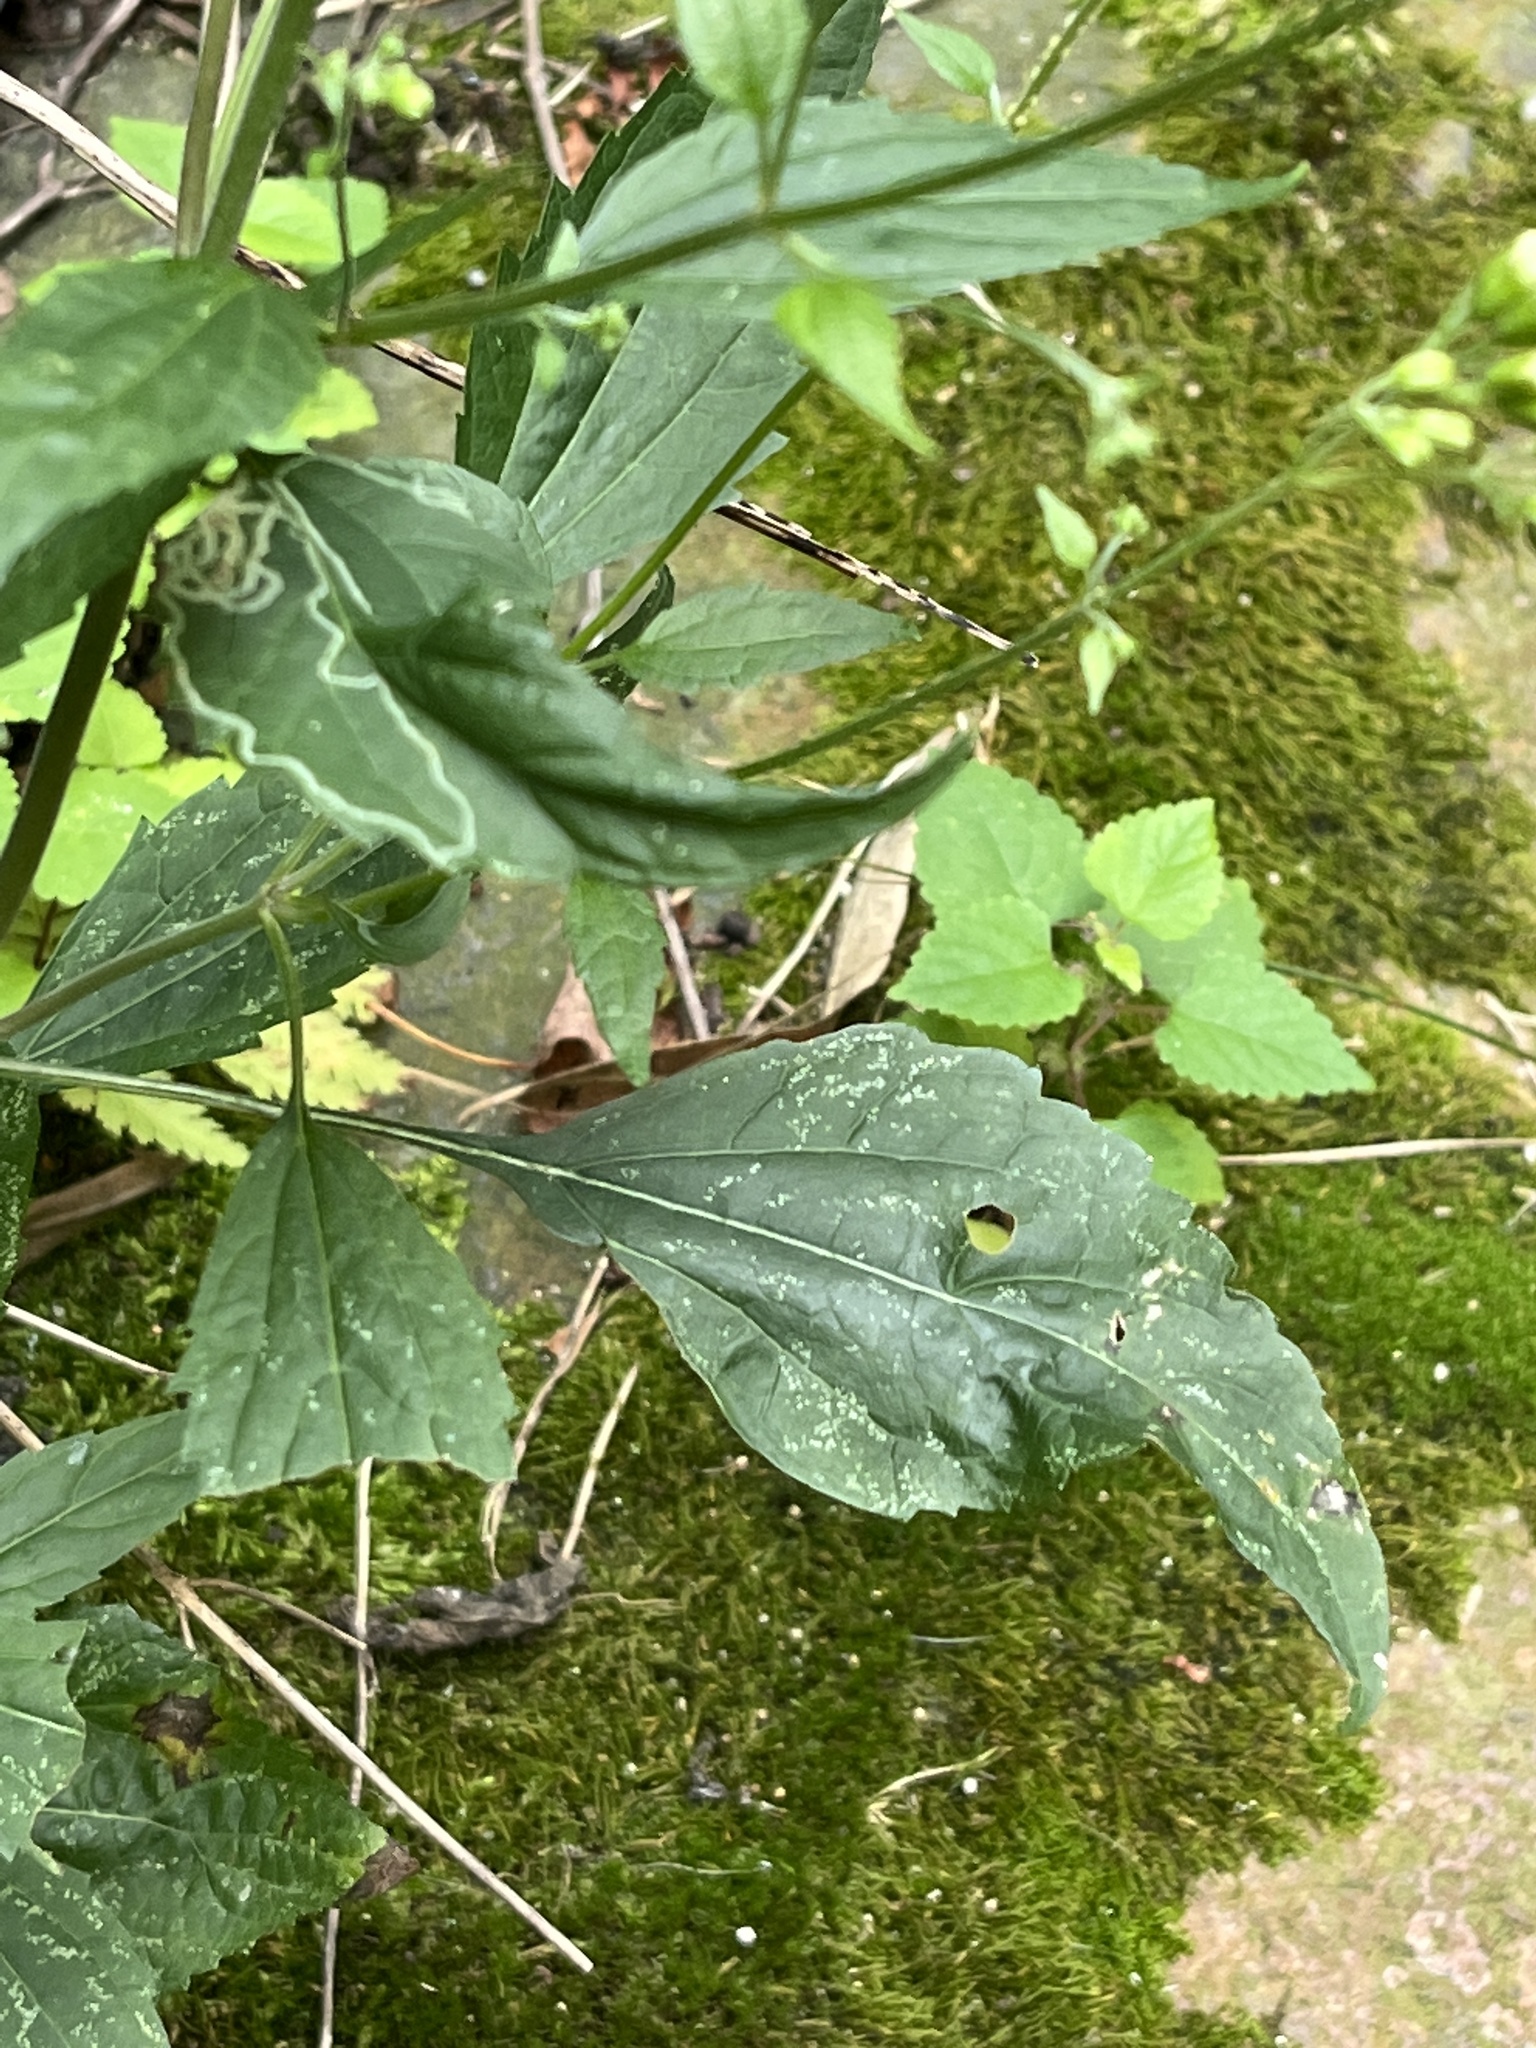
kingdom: Plantae
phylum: Tracheophyta
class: Magnoliopsida
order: Asterales
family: Asteraceae
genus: Ageratina
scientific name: Ageratina altissima
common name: White snakeroot
